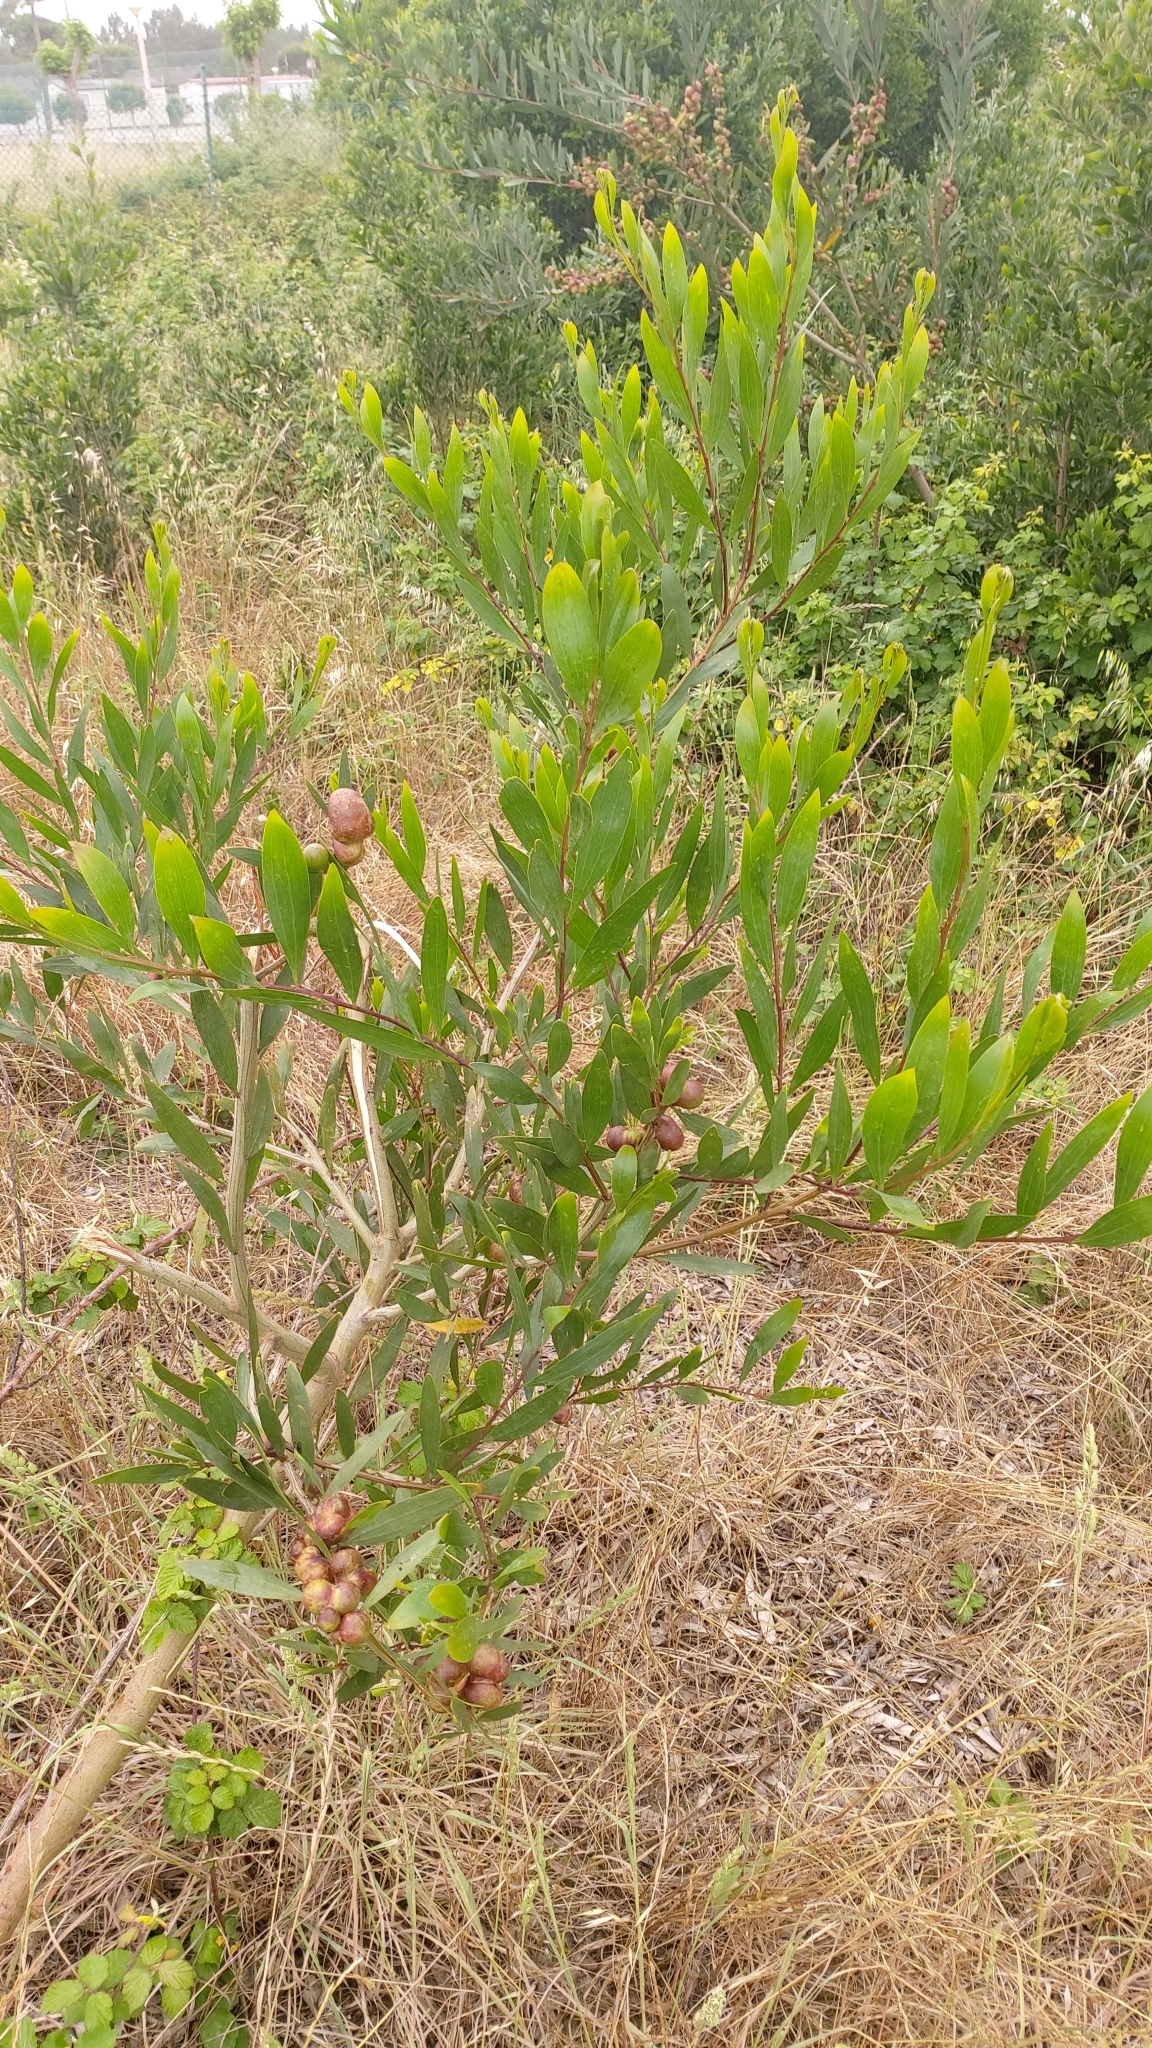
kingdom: Plantae
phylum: Tracheophyta
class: Magnoliopsida
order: Fabales
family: Fabaceae
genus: Acacia
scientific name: Acacia longifolia
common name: Sydney golden wattle
